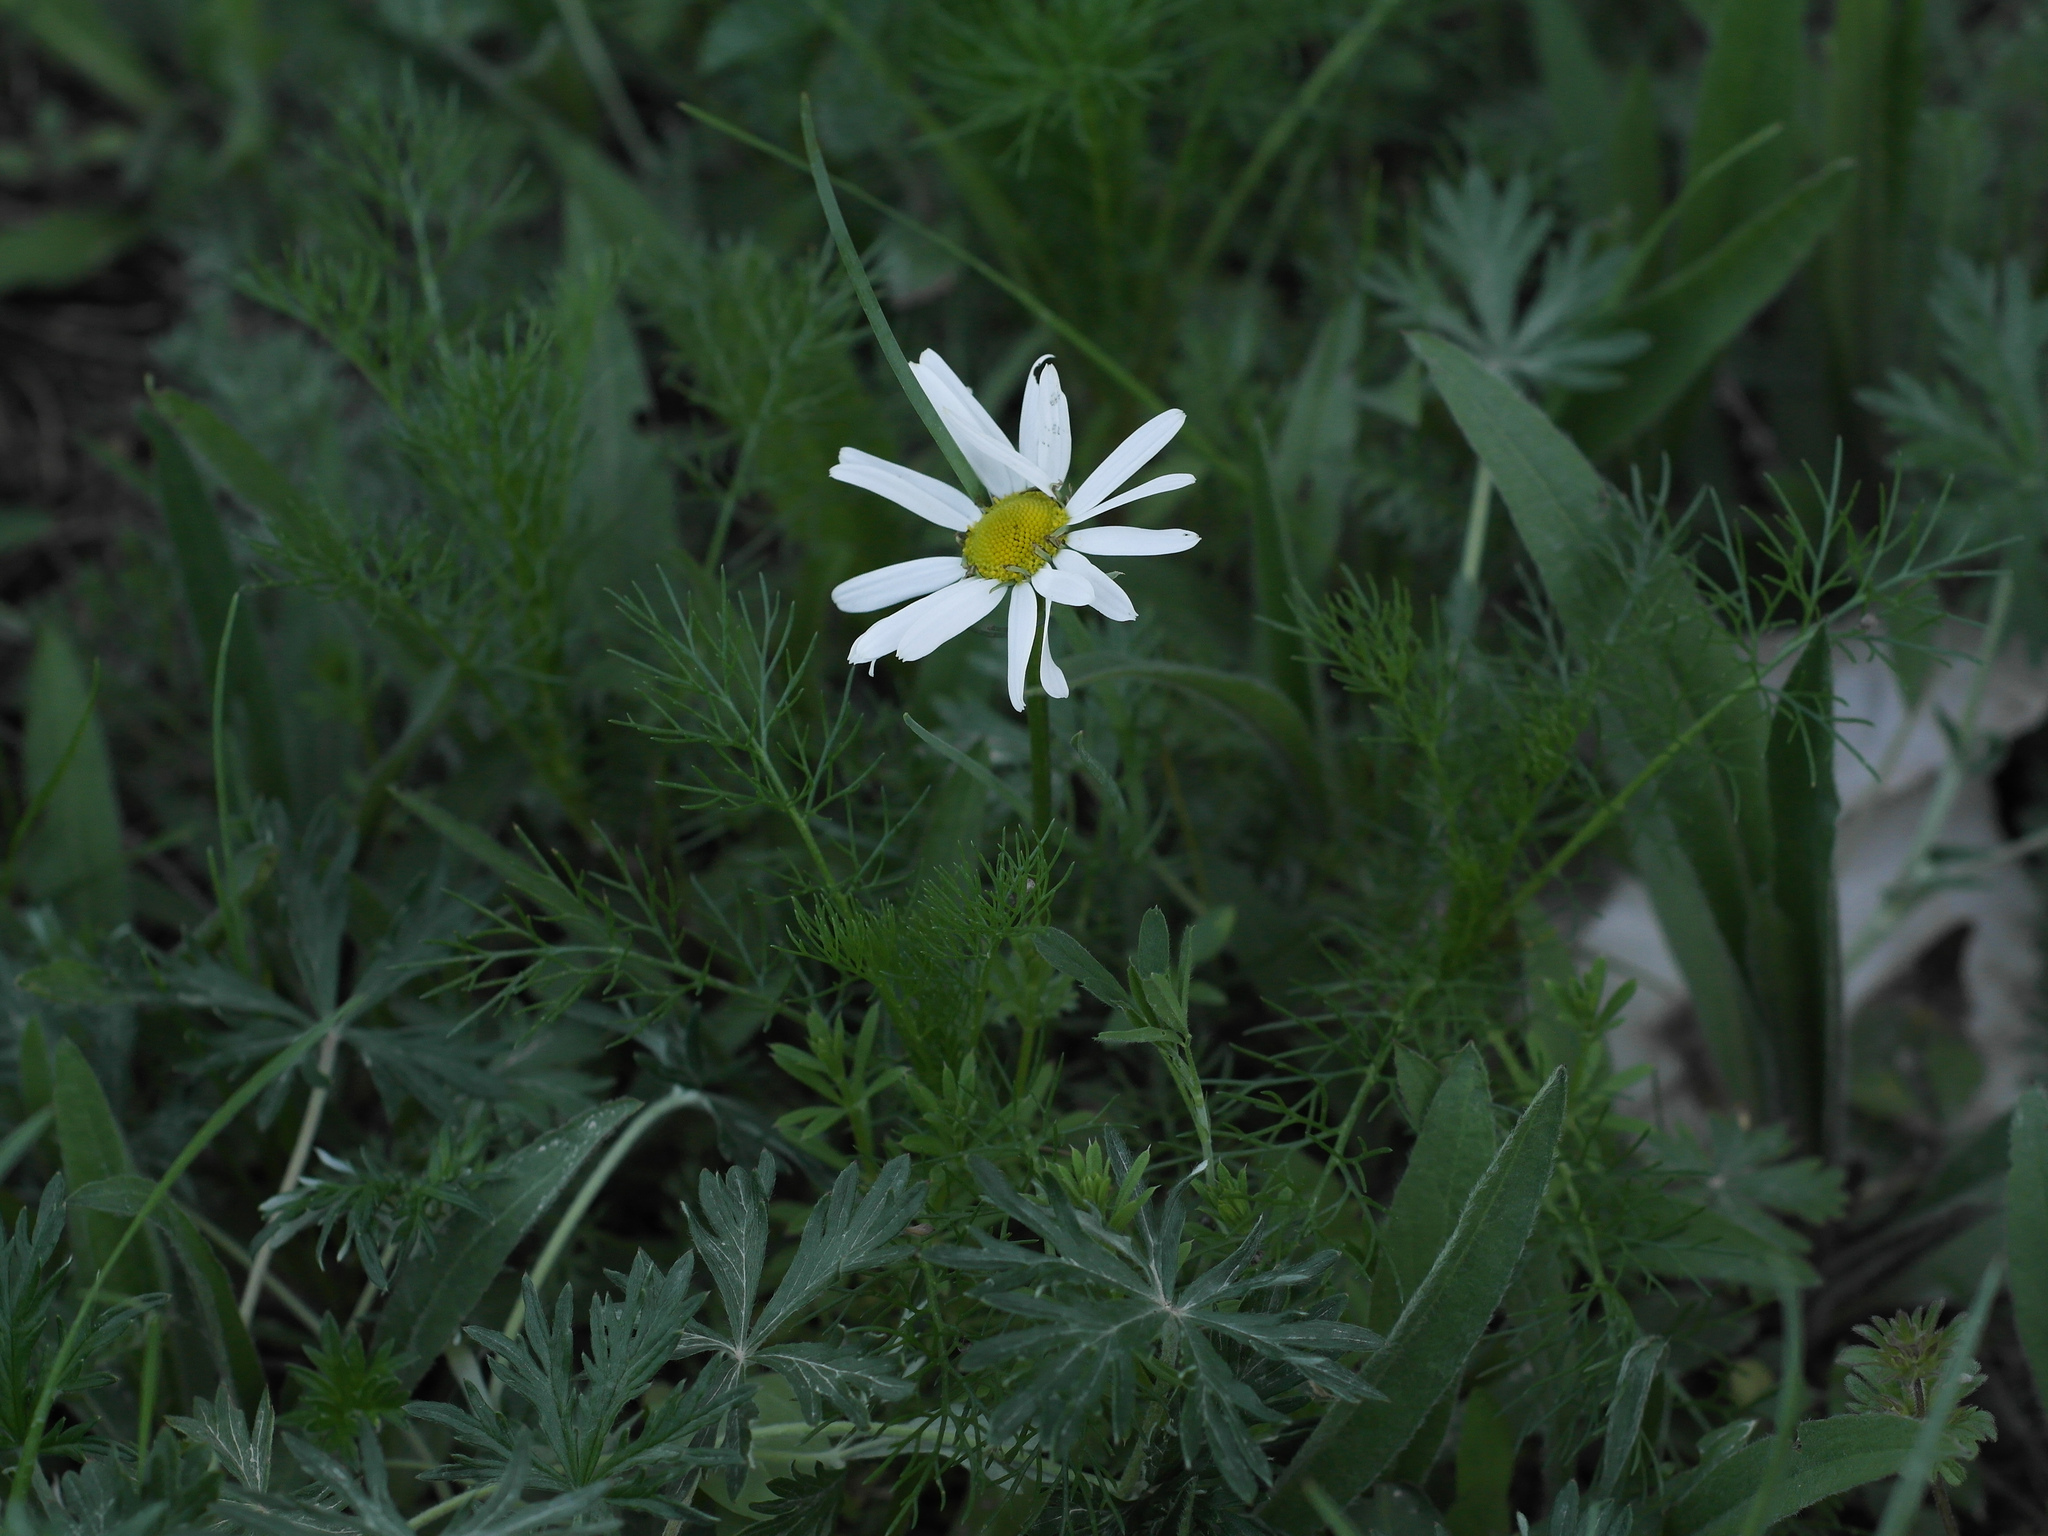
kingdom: Plantae
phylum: Tracheophyta
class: Magnoliopsida
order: Asterales
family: Asteraceae
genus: Tripleurospermum
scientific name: Tripleurospermum inodorum
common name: Scentless mayweed
